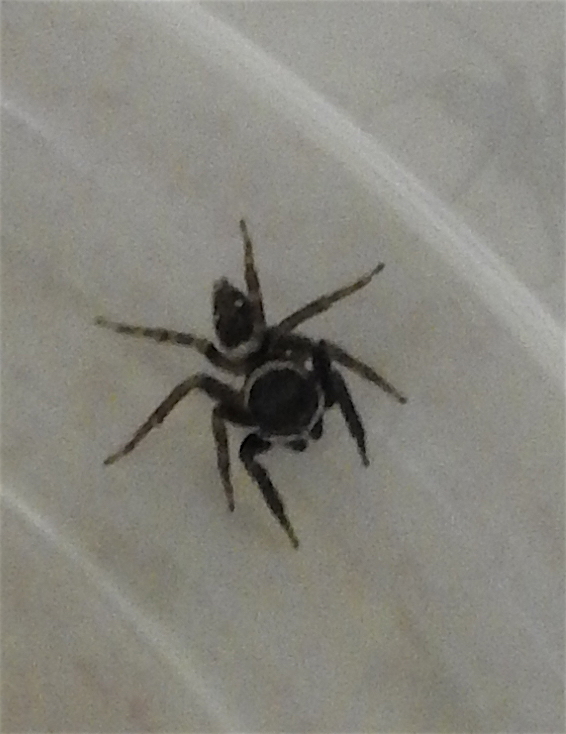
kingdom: Animalia
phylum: Arthropoda
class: Arachnida
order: Araneae
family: Salticidae
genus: Hasarius
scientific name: Hasarius adansoni
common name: Jumping spider
